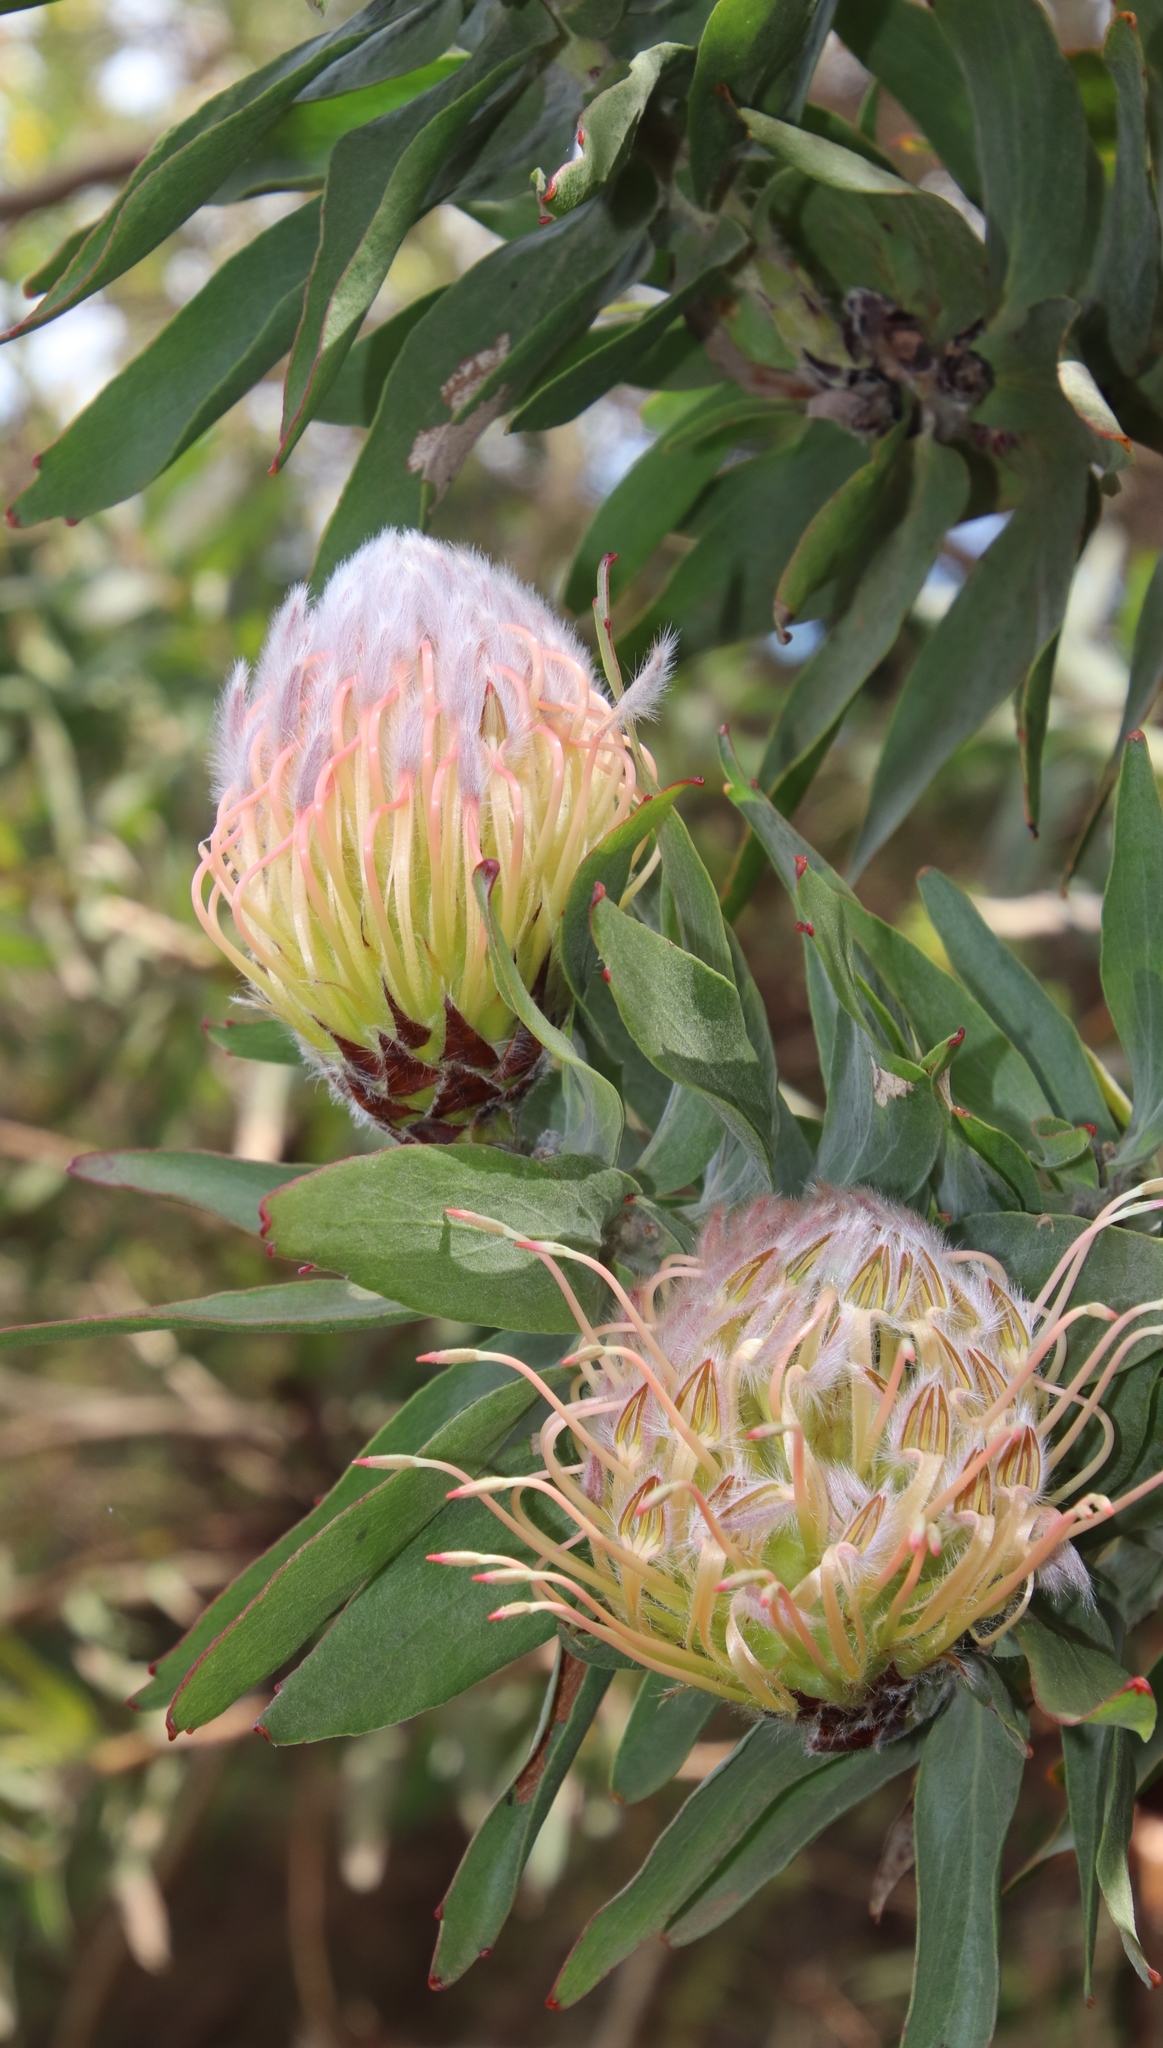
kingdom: Plantae
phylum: Tracheophyta
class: Magnoliopsida
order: Proteales
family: Proteaceae
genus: Leucospermum
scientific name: Leucospermum gueinzii
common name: Kloof fountain pincushion
